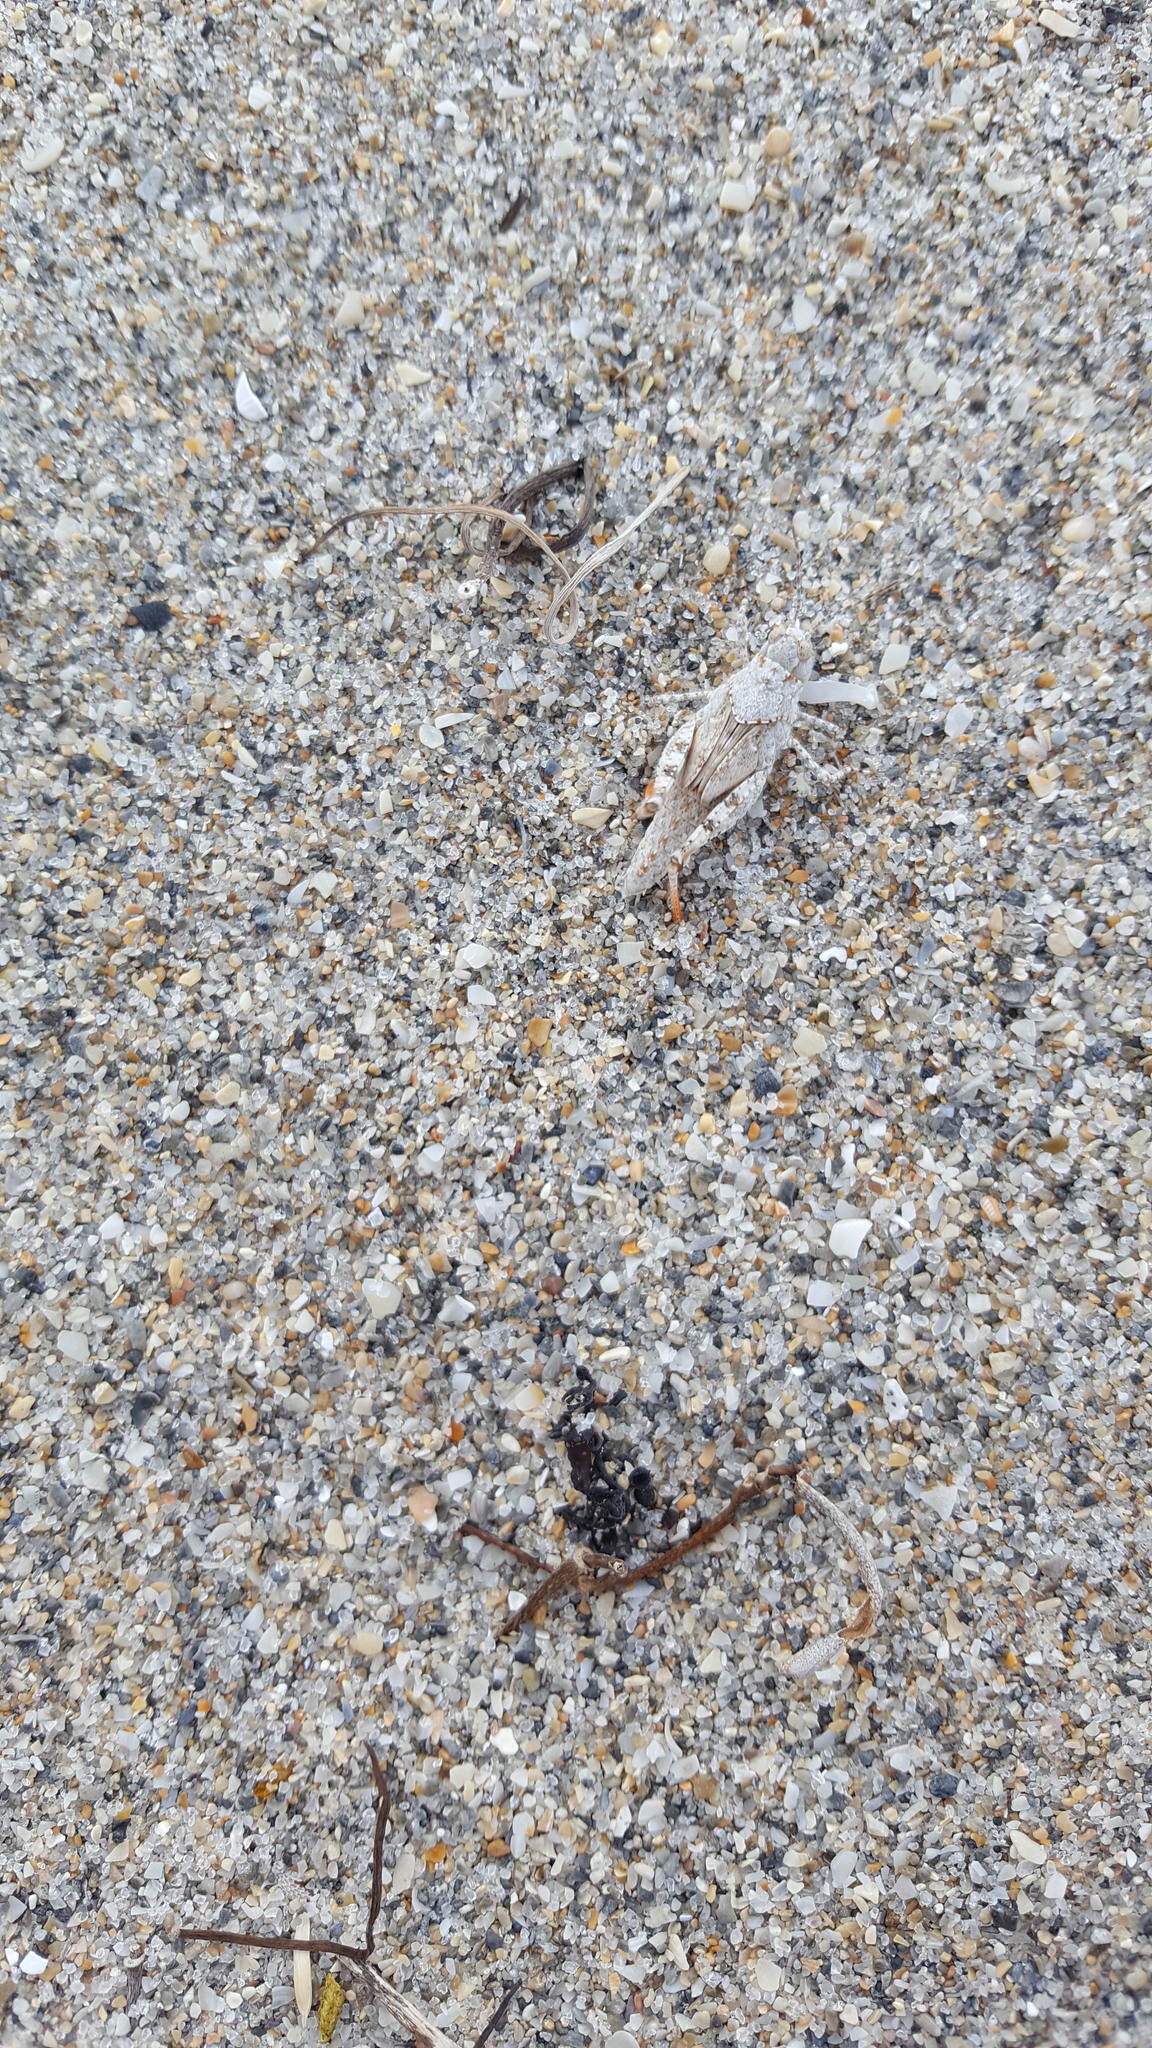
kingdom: Animalia
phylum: Arthropoda
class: Insecta
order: Orthoptera
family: Acrididae
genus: Trimerotropis
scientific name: Trimerotropis maritima
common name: Seaside locust
